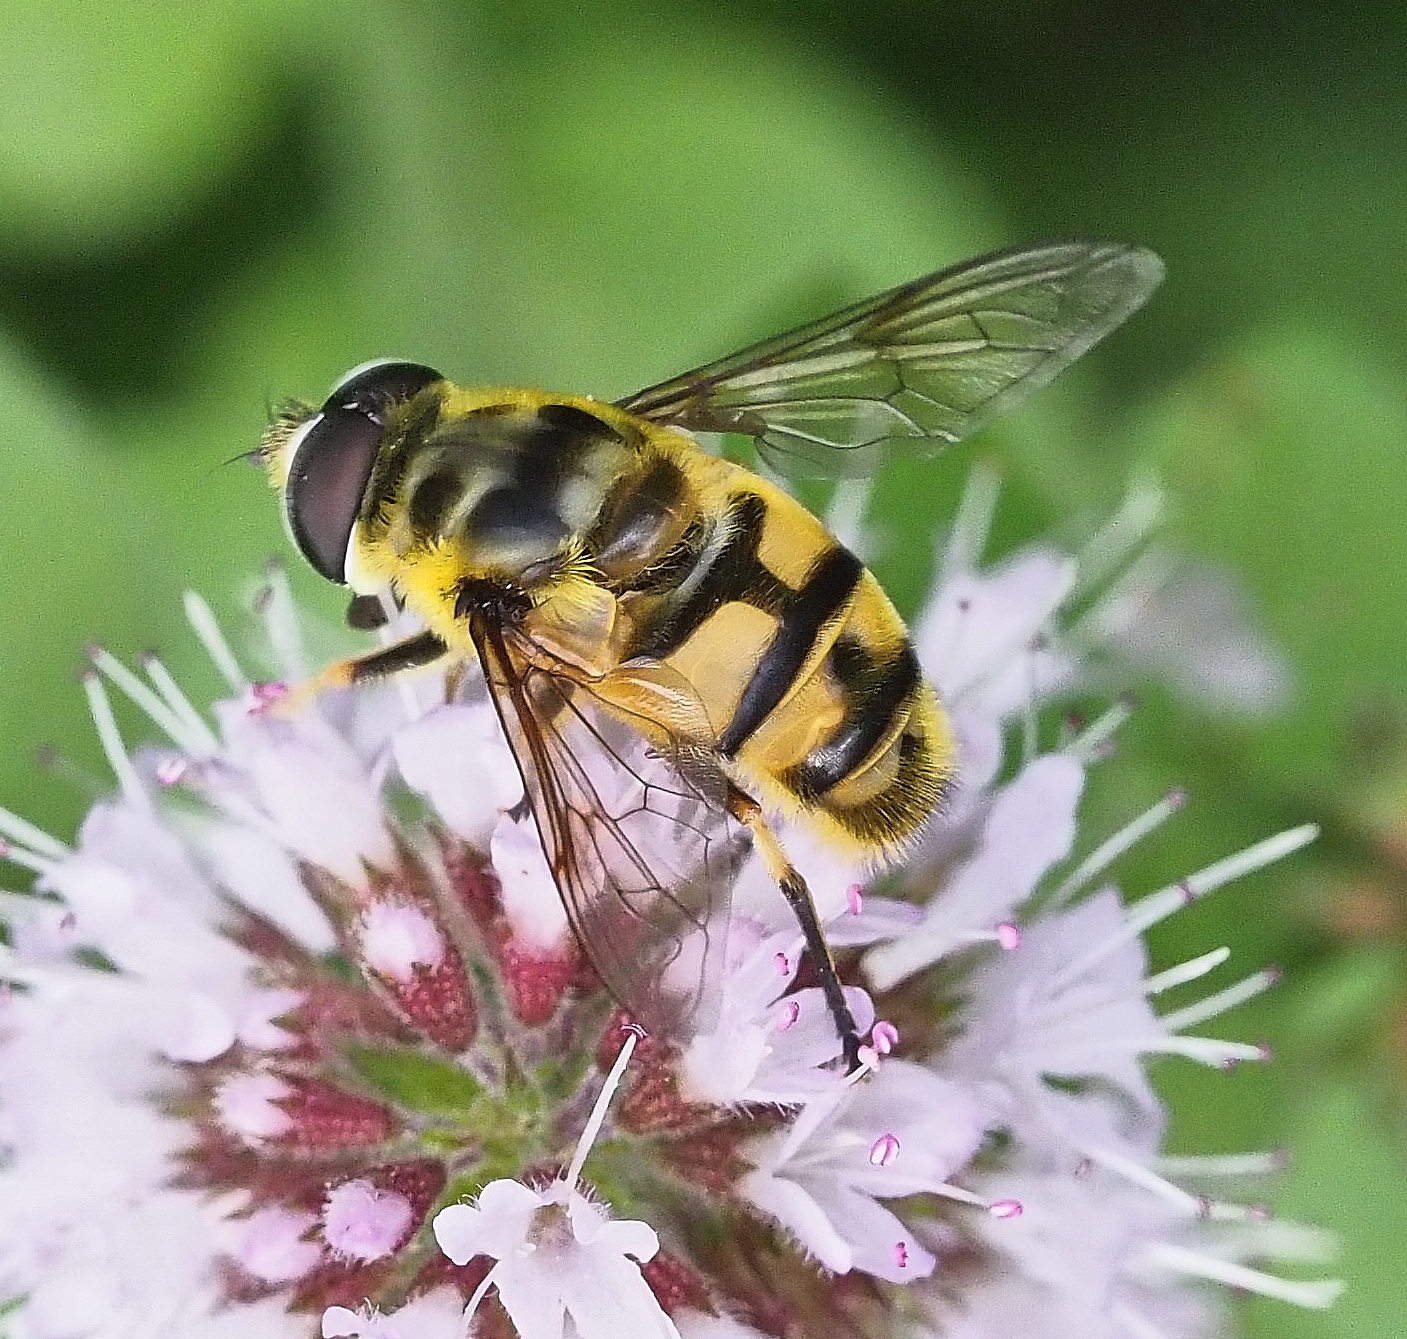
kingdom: Animalia
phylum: Arthropoda
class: Insecta
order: Diptera
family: Syrphidae
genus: Myathropa
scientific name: Myathropa florea
